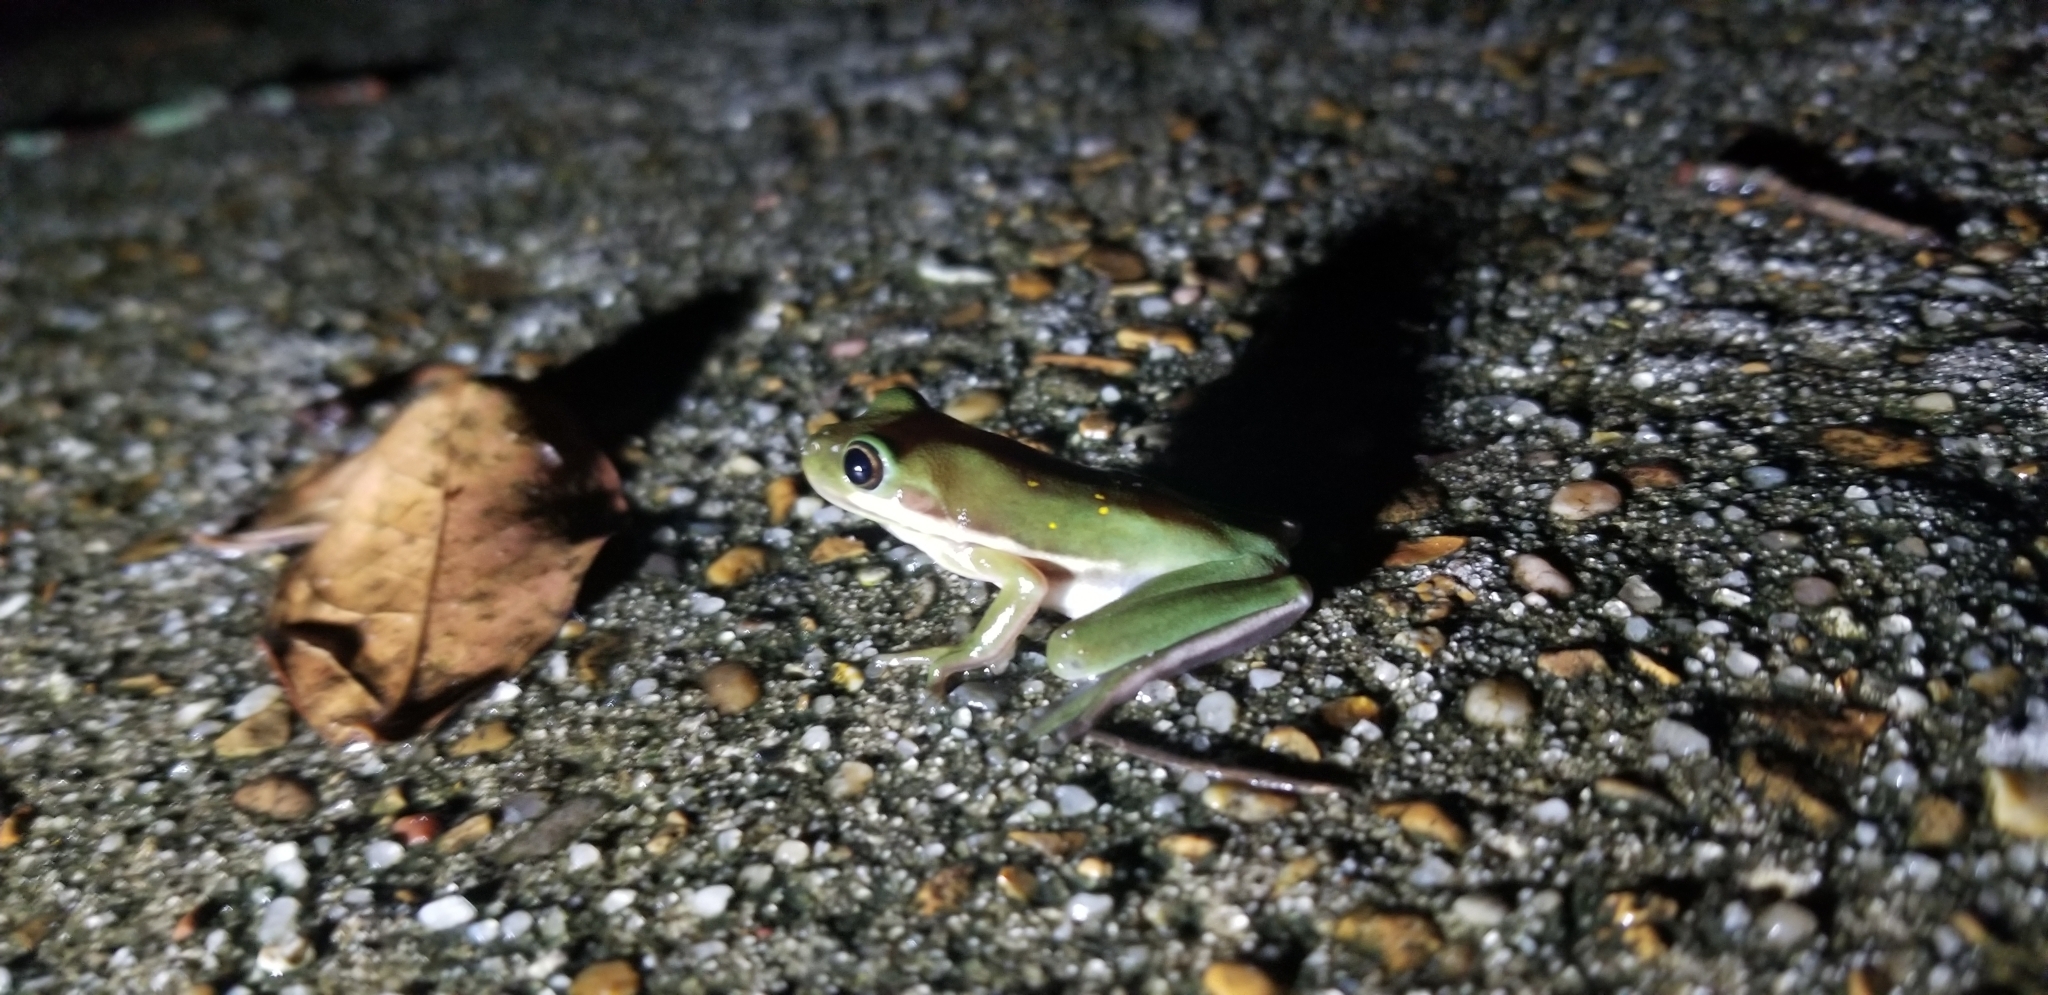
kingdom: Animalia
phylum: Chordata
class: Amphibia
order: Anura
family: Hylidae
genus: Dryophytes
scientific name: Dryophytes cinereus
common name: Green treefrog
